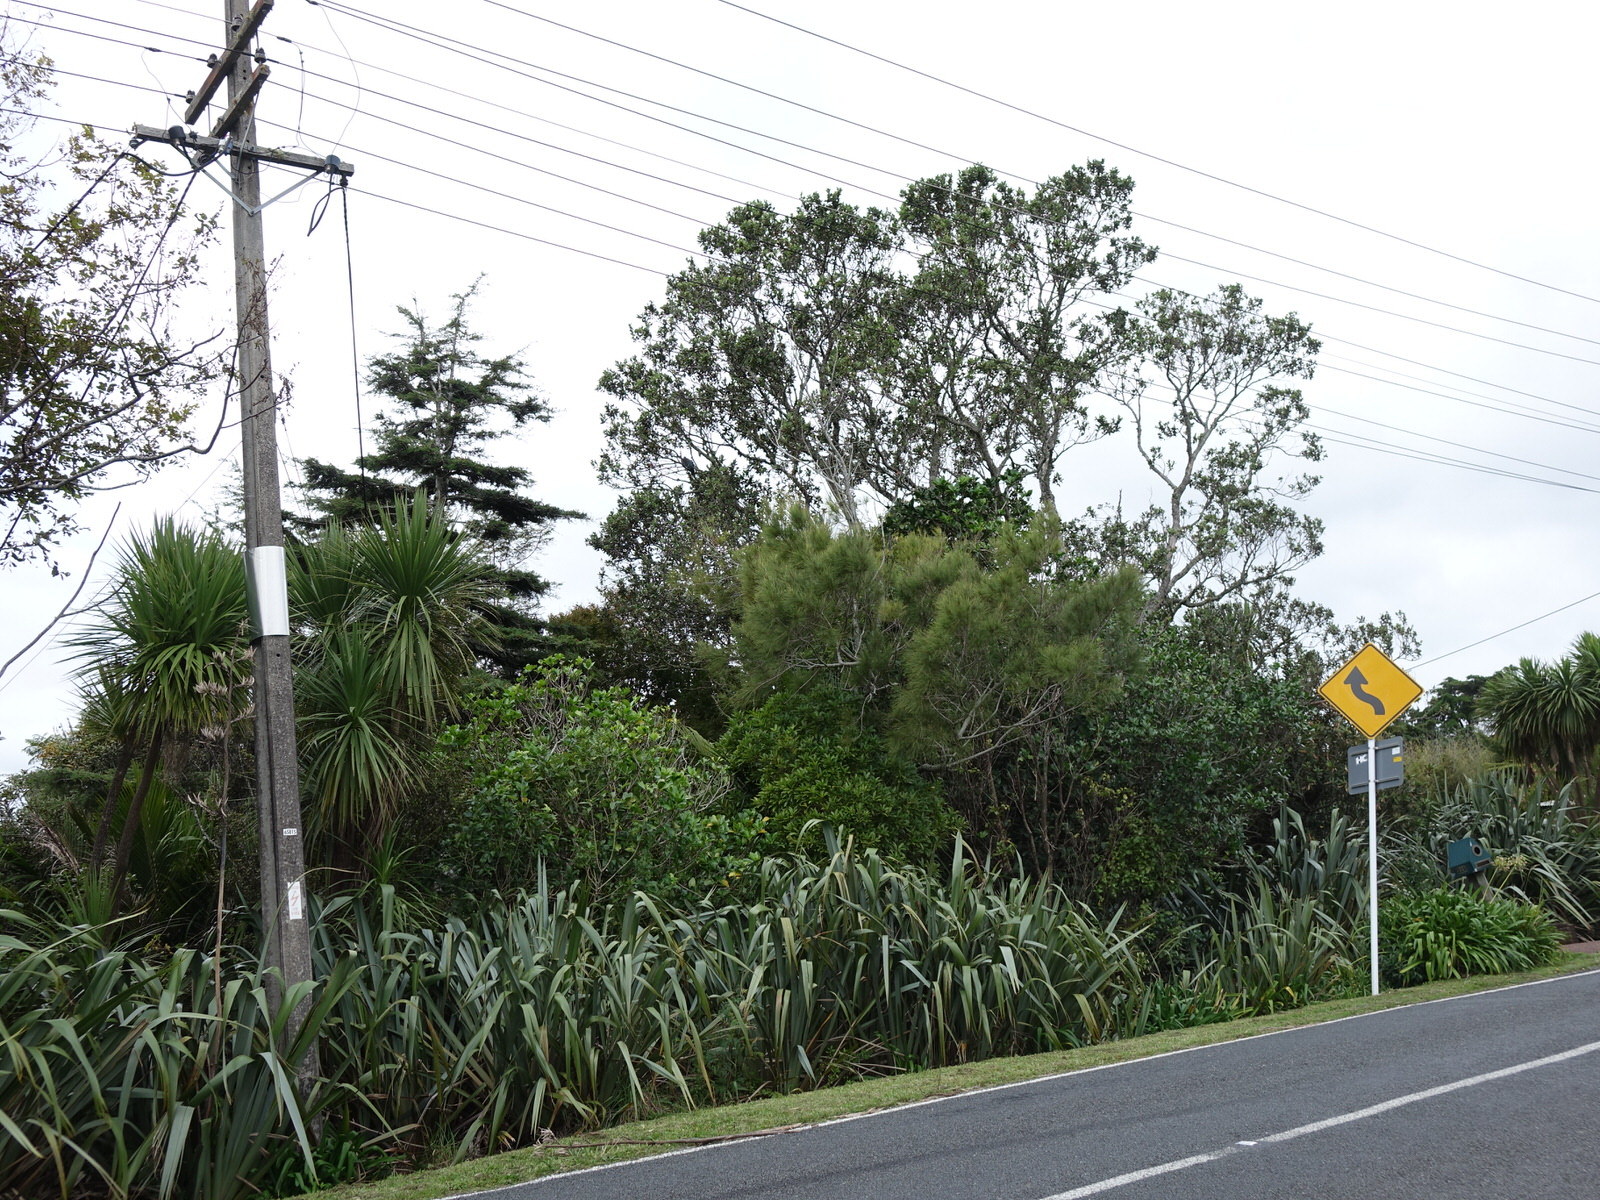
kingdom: Animalia
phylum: Chordata
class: Aves
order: Columbiformes
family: Columbidae
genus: Hemiphaga
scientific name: Hemiphaga novaeseelandiae
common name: New zealand pigeon
